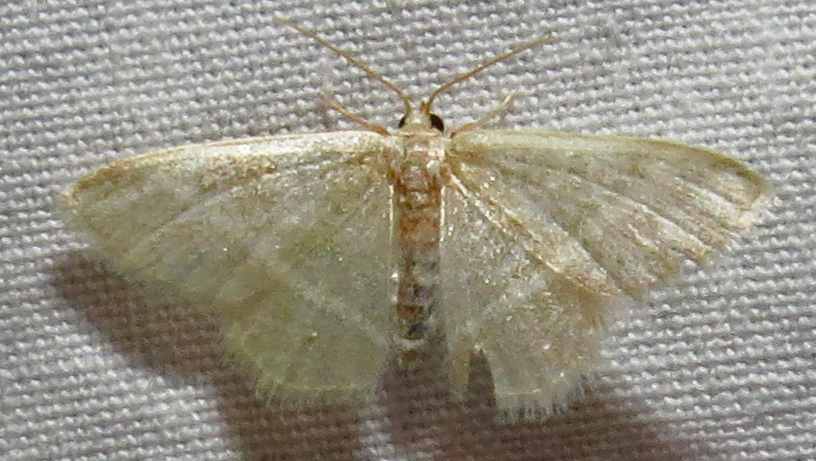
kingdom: Animalia
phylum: Arthropoda
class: Insecta
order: Lepidoptera
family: Geometridae
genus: Chlorochlamys
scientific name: Chlorochlamys chloroleucaria
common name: Blackberry looper
